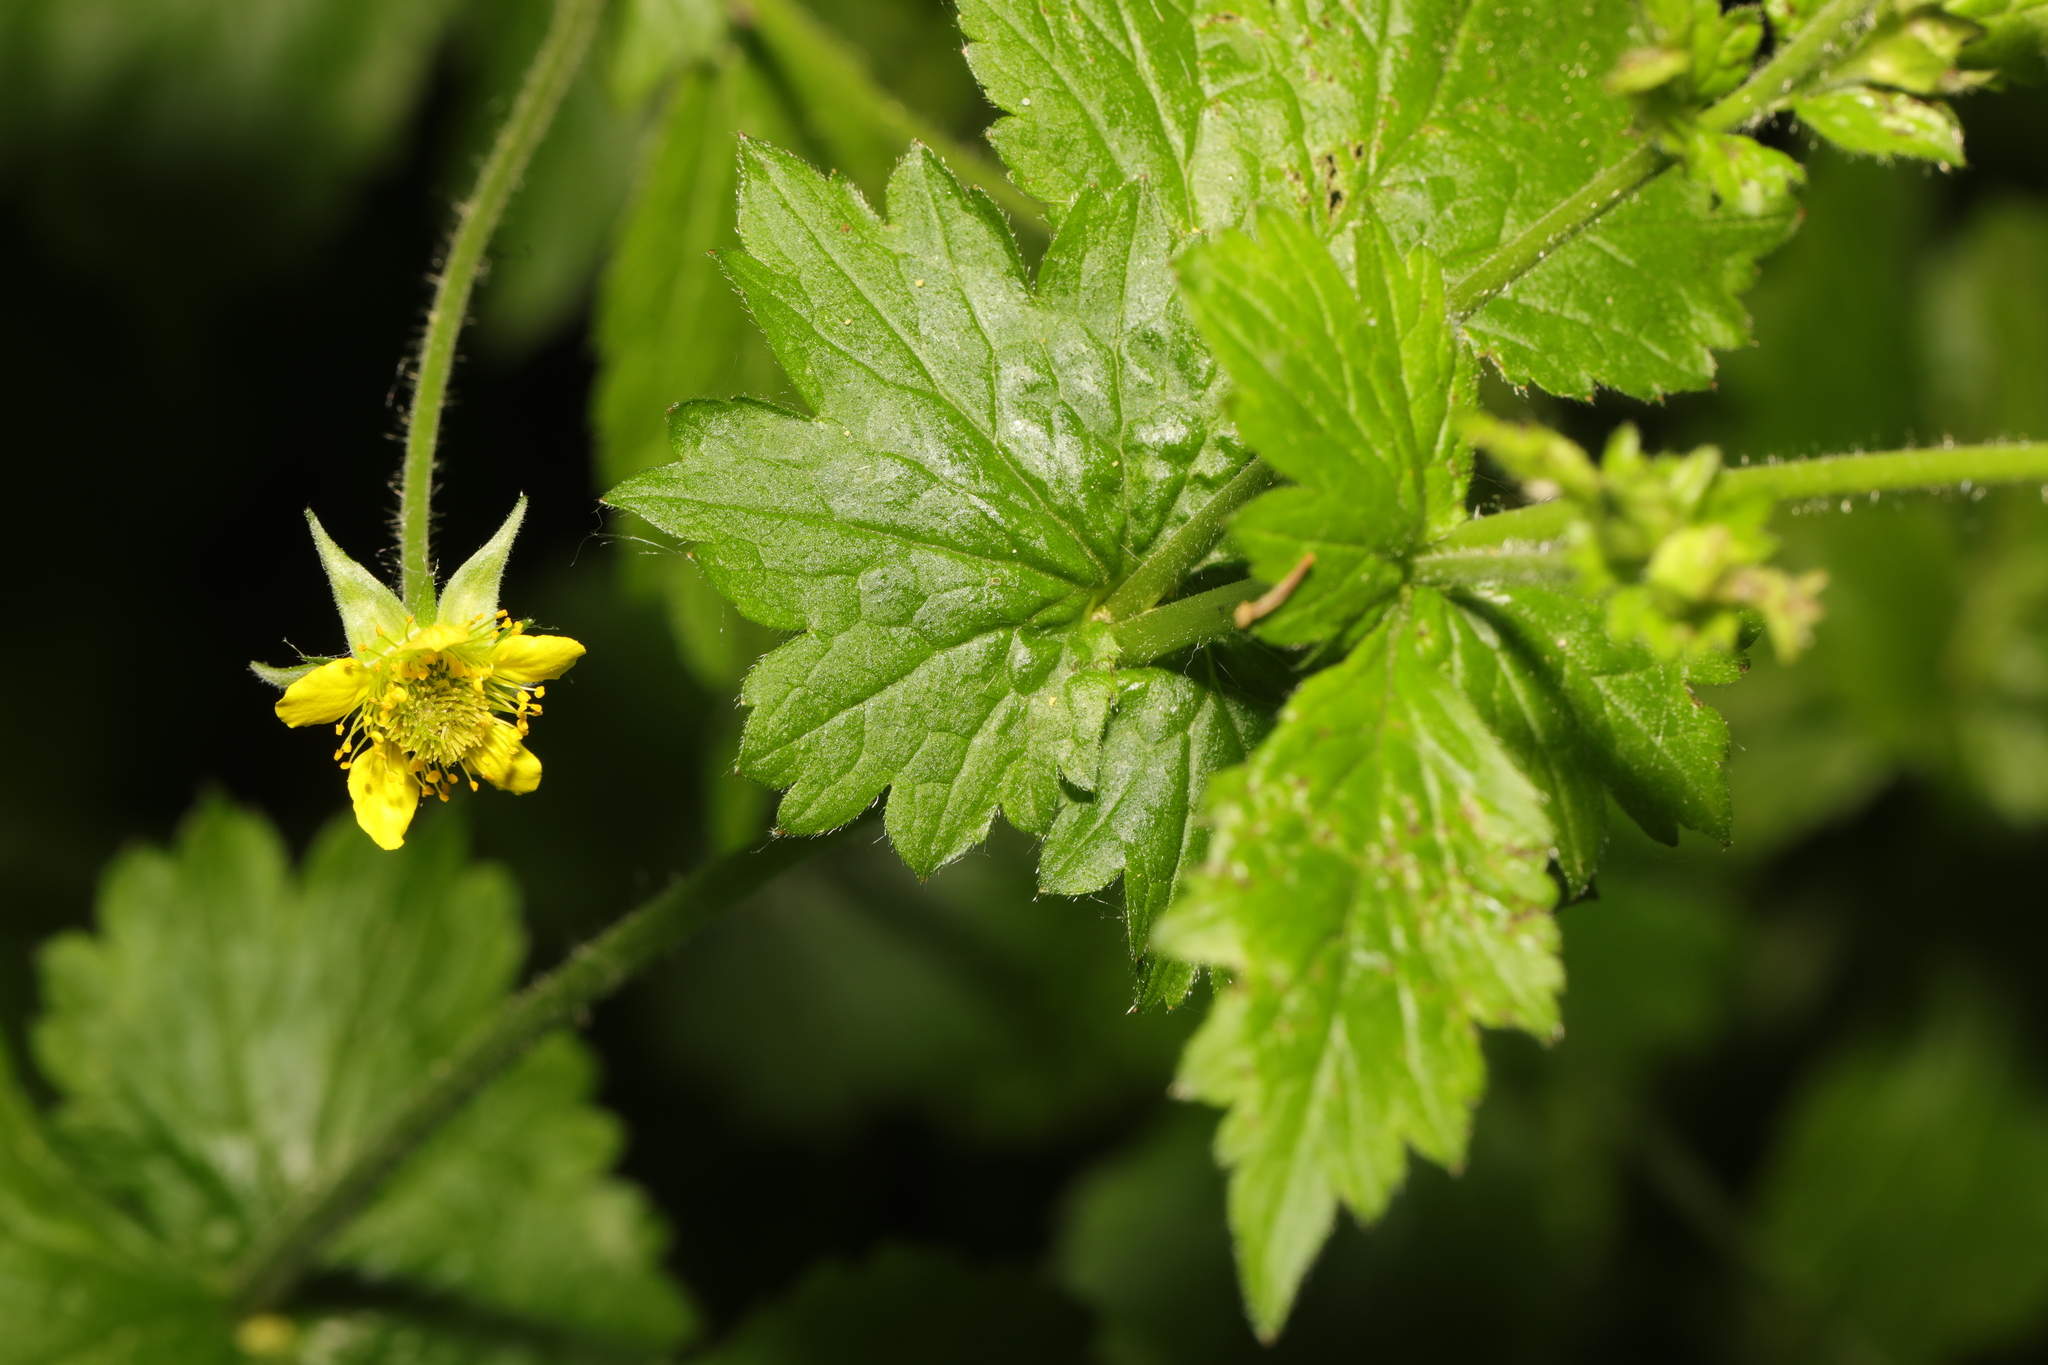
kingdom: Plantae
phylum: Tracheophyta
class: Magnoliopsida
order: Rosales
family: Rosaceae
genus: Geum
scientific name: Geum urbanum
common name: Wood avens
